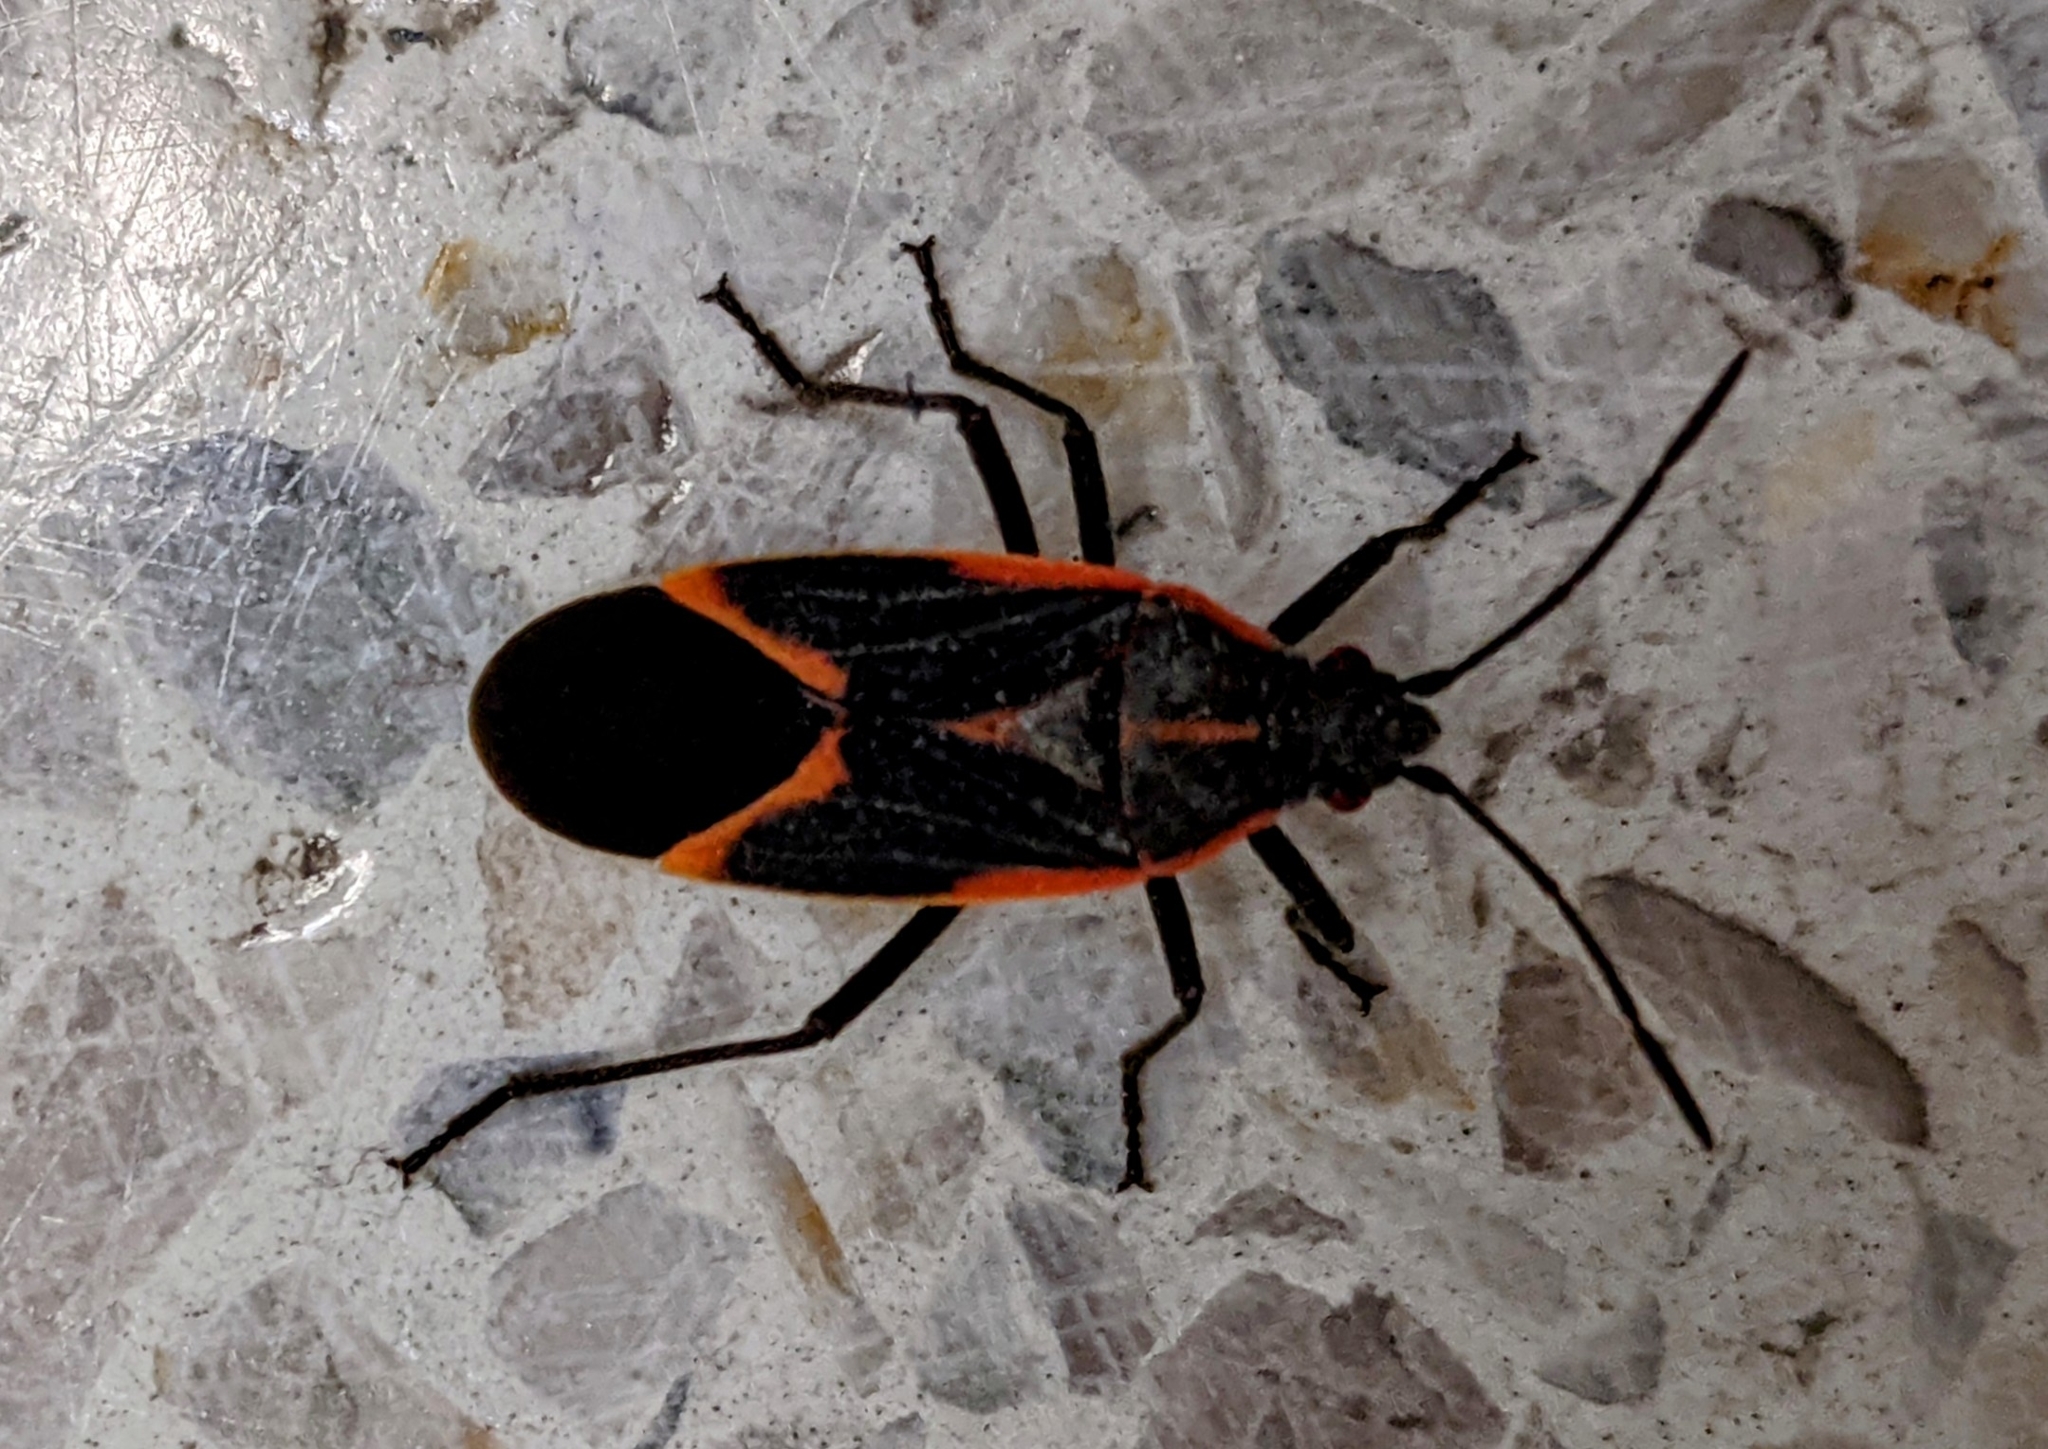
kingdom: Animalia
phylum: Arthropoda
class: Insecta
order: Hemiptera
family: Rhopalidae
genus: Boisea
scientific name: Boisea trivittata
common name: Boxelder bug
